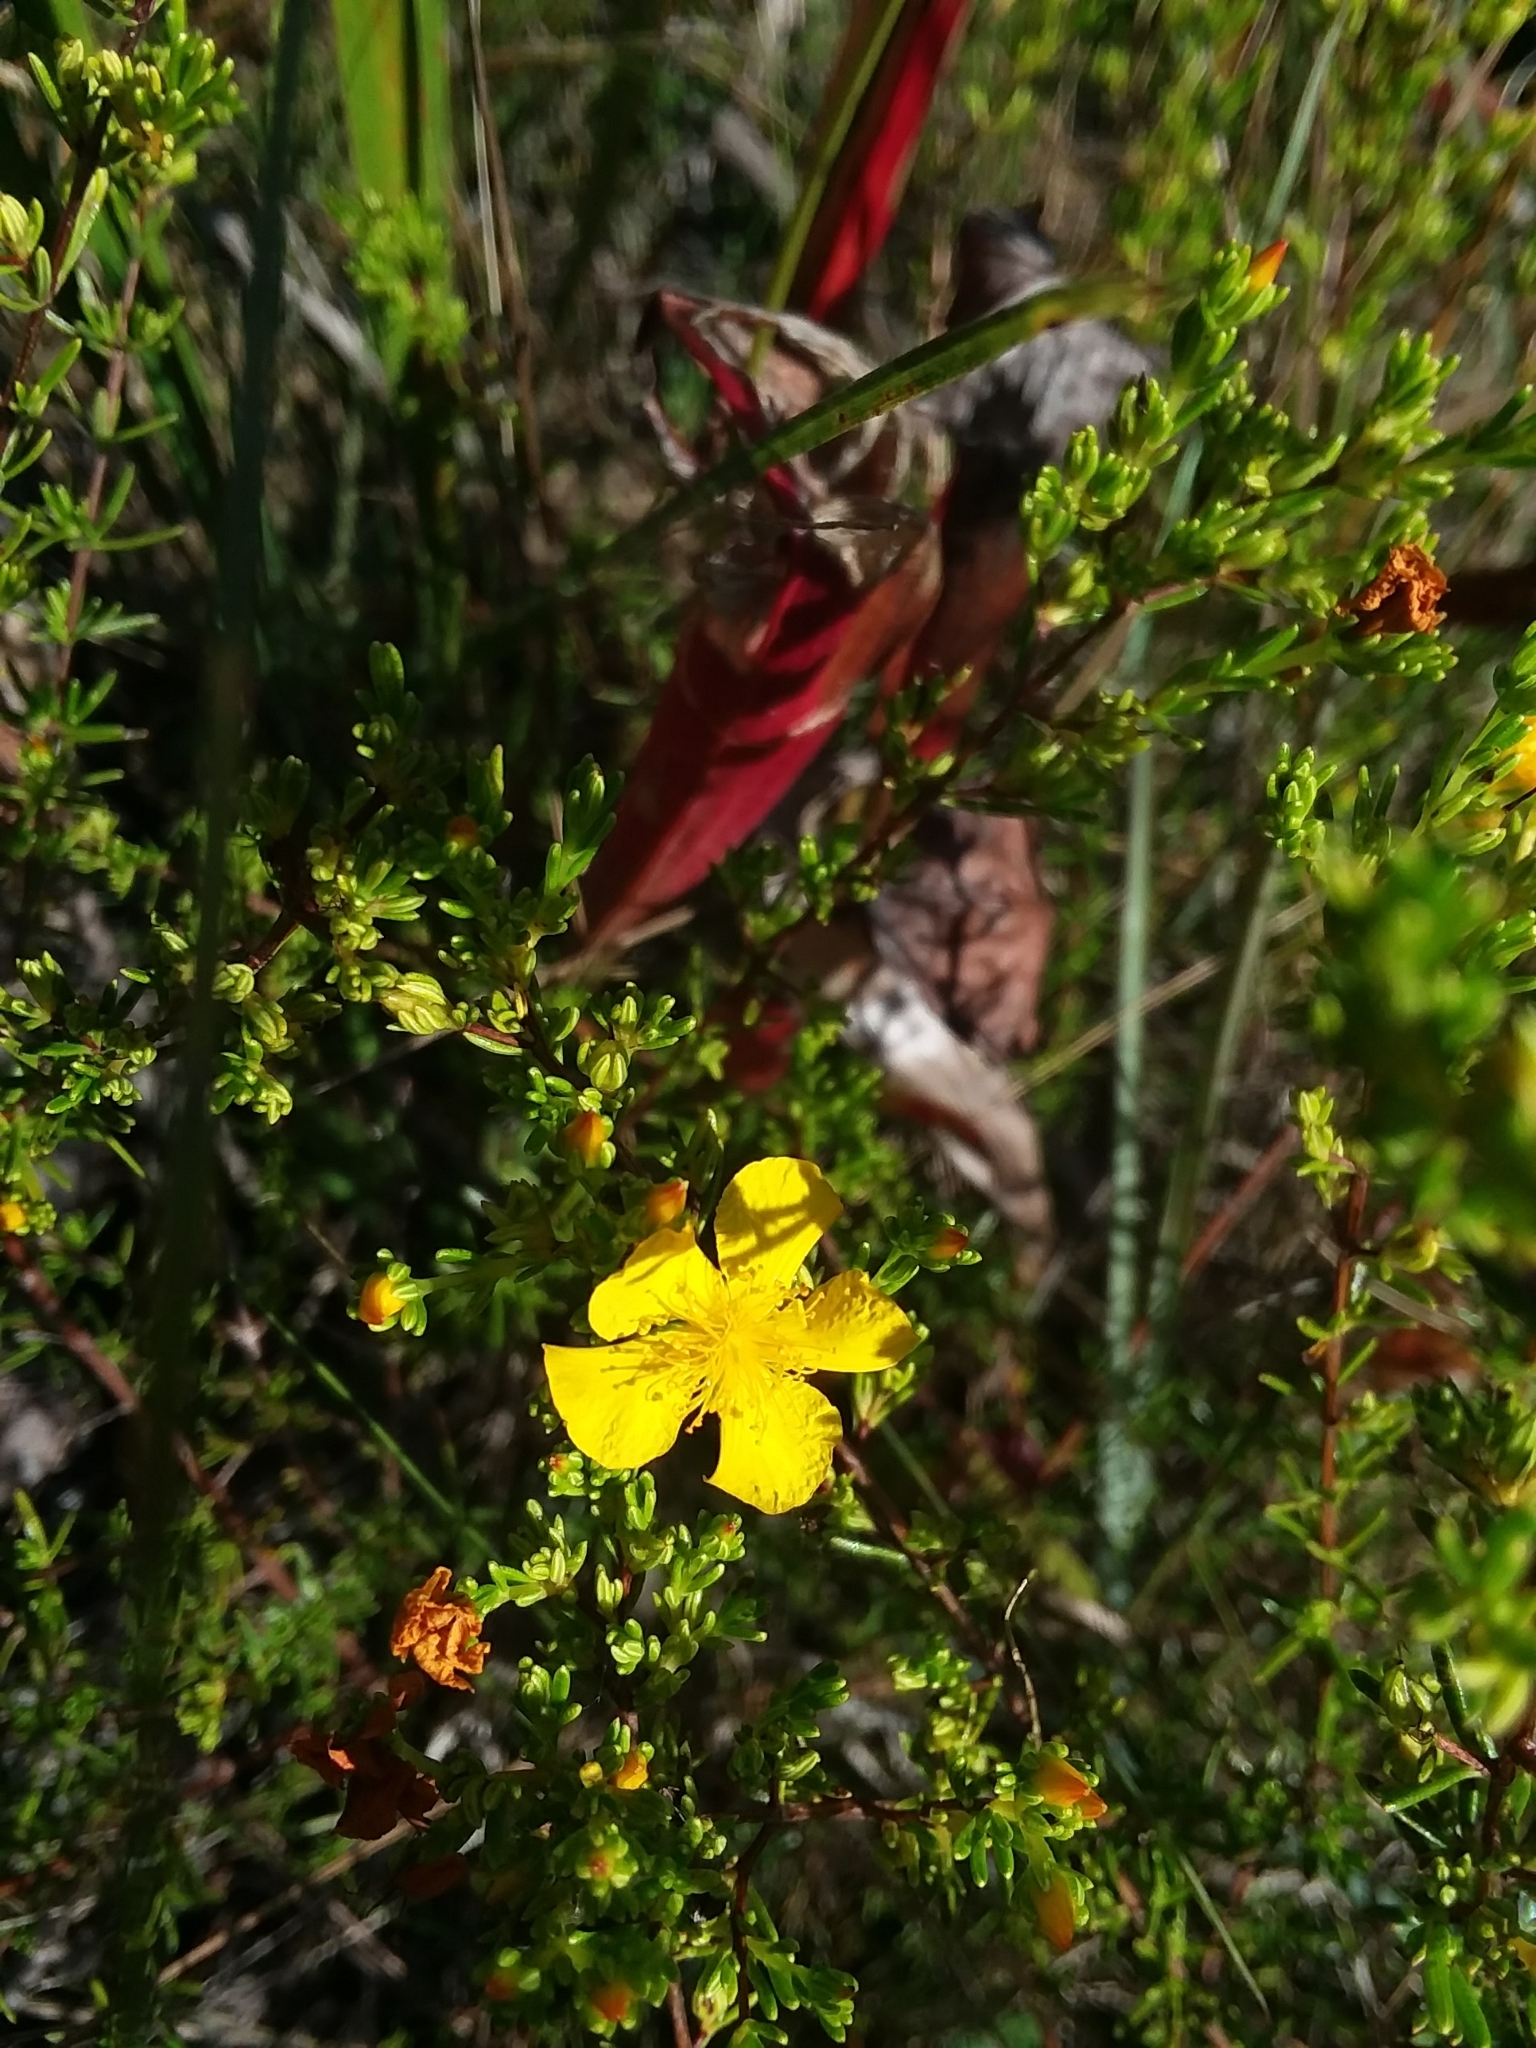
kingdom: Plantae
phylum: Tracheophyta
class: Magnoliopsida
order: Malpighiales
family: Hypericaceae
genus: Hypericum
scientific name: Hypericum brachyphyllum
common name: Coastal plain st. john's-wort
